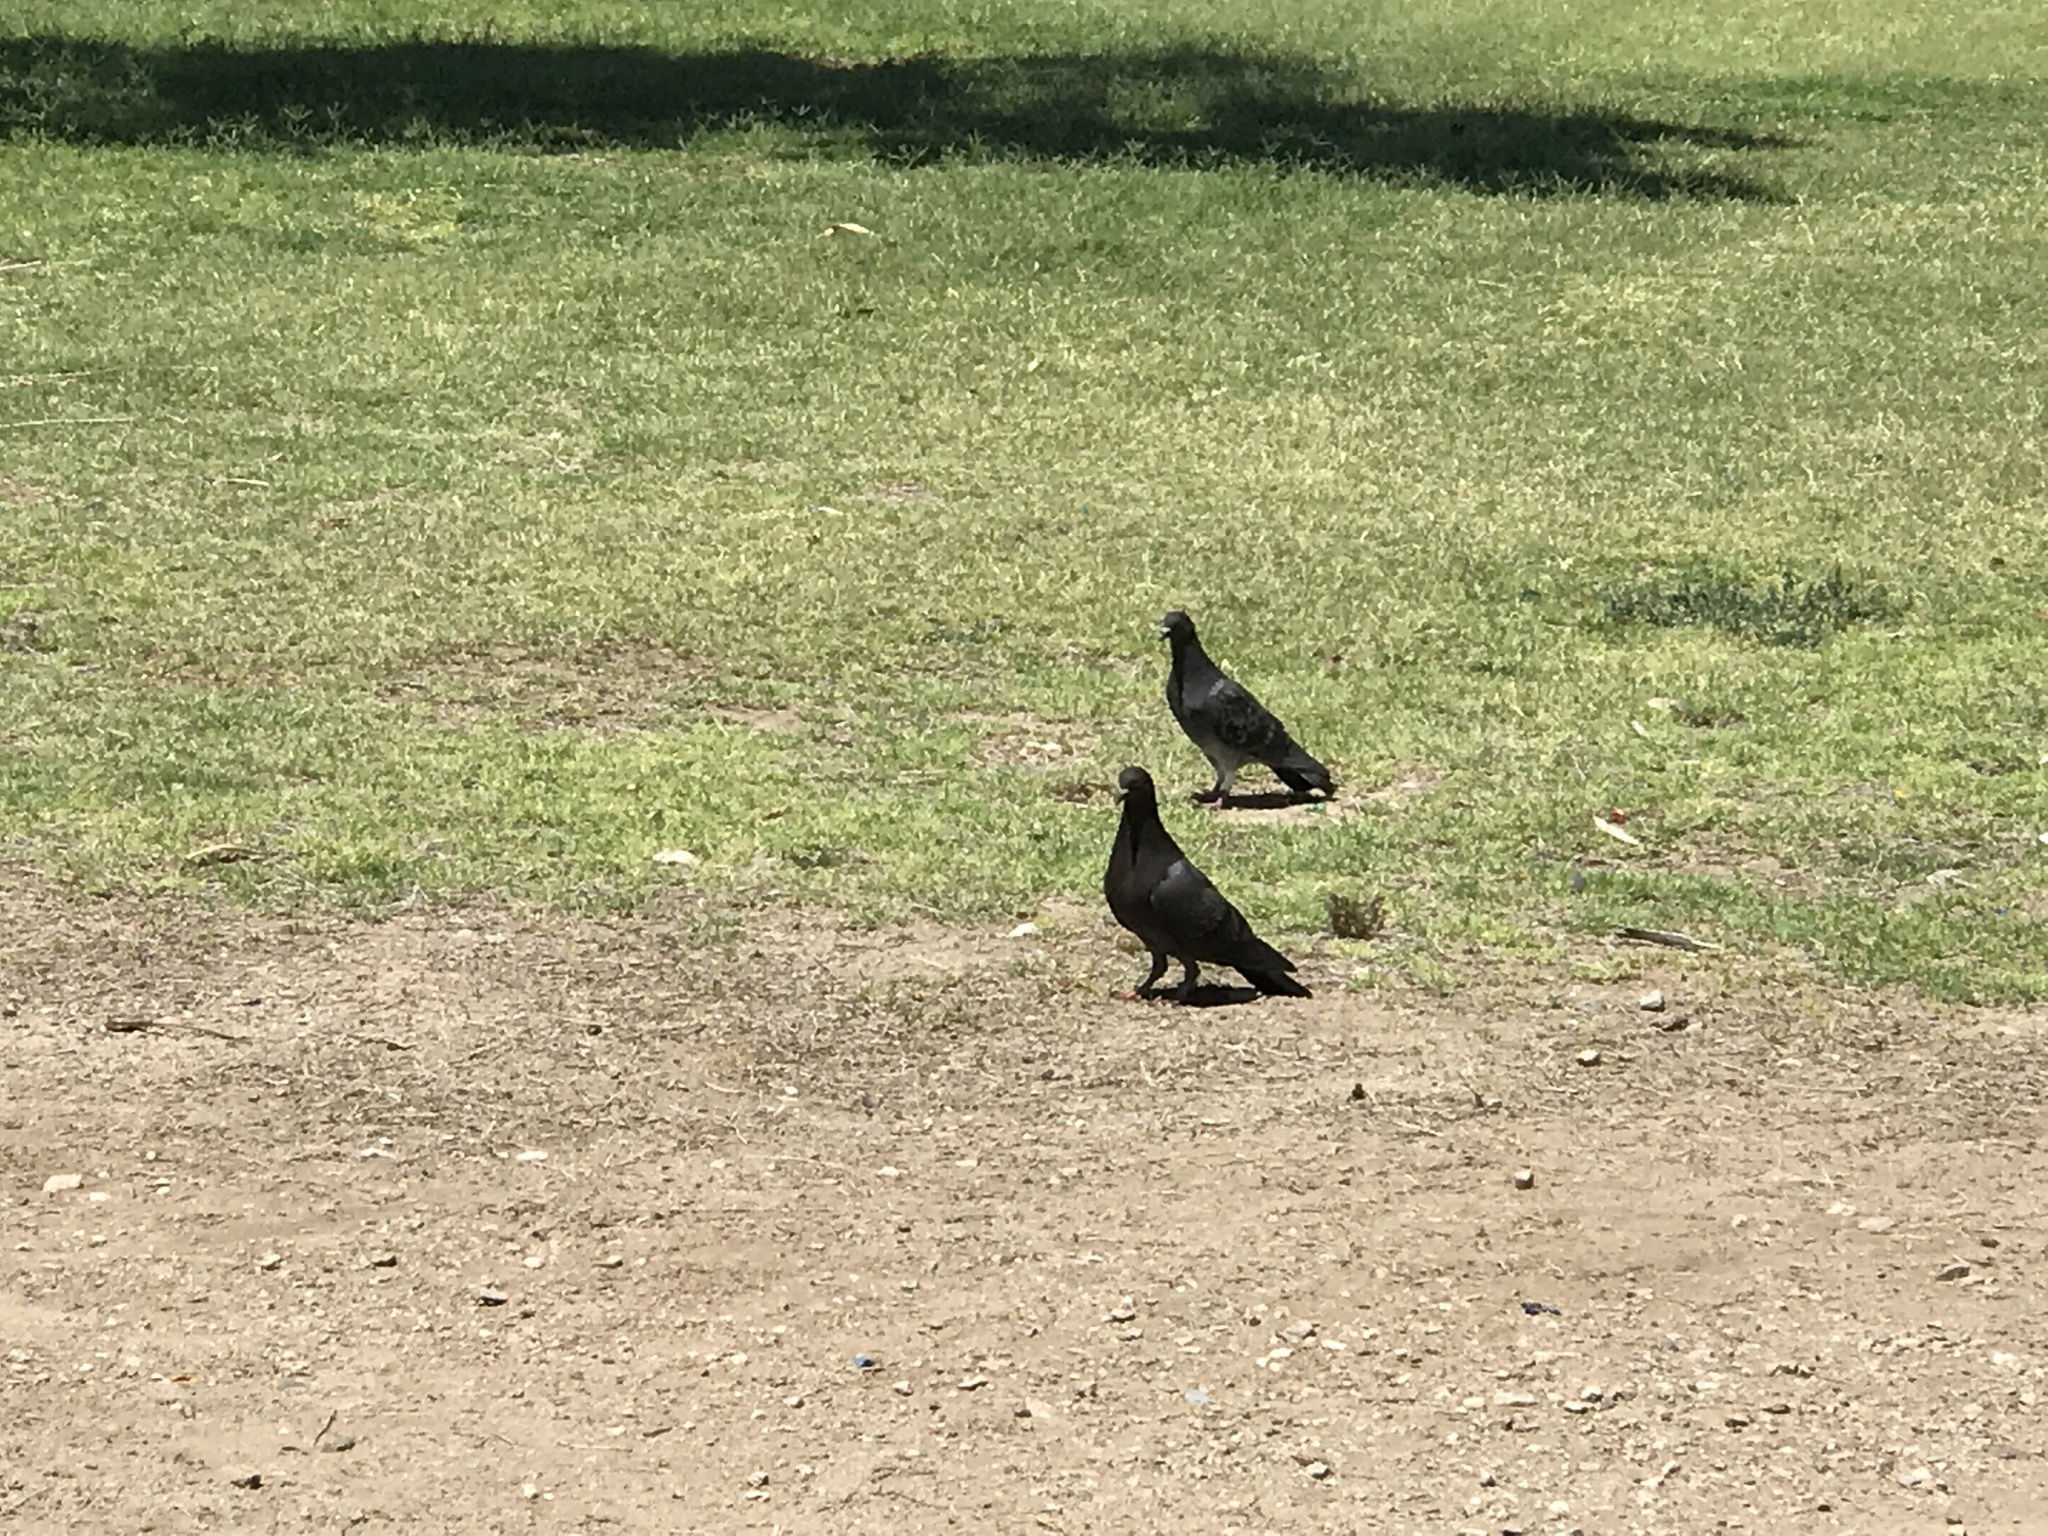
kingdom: Animalia
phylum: Chordata
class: Aves
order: Columbiformes
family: Columbidae
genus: Columba
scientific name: Columba livia
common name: Rock pigeon
